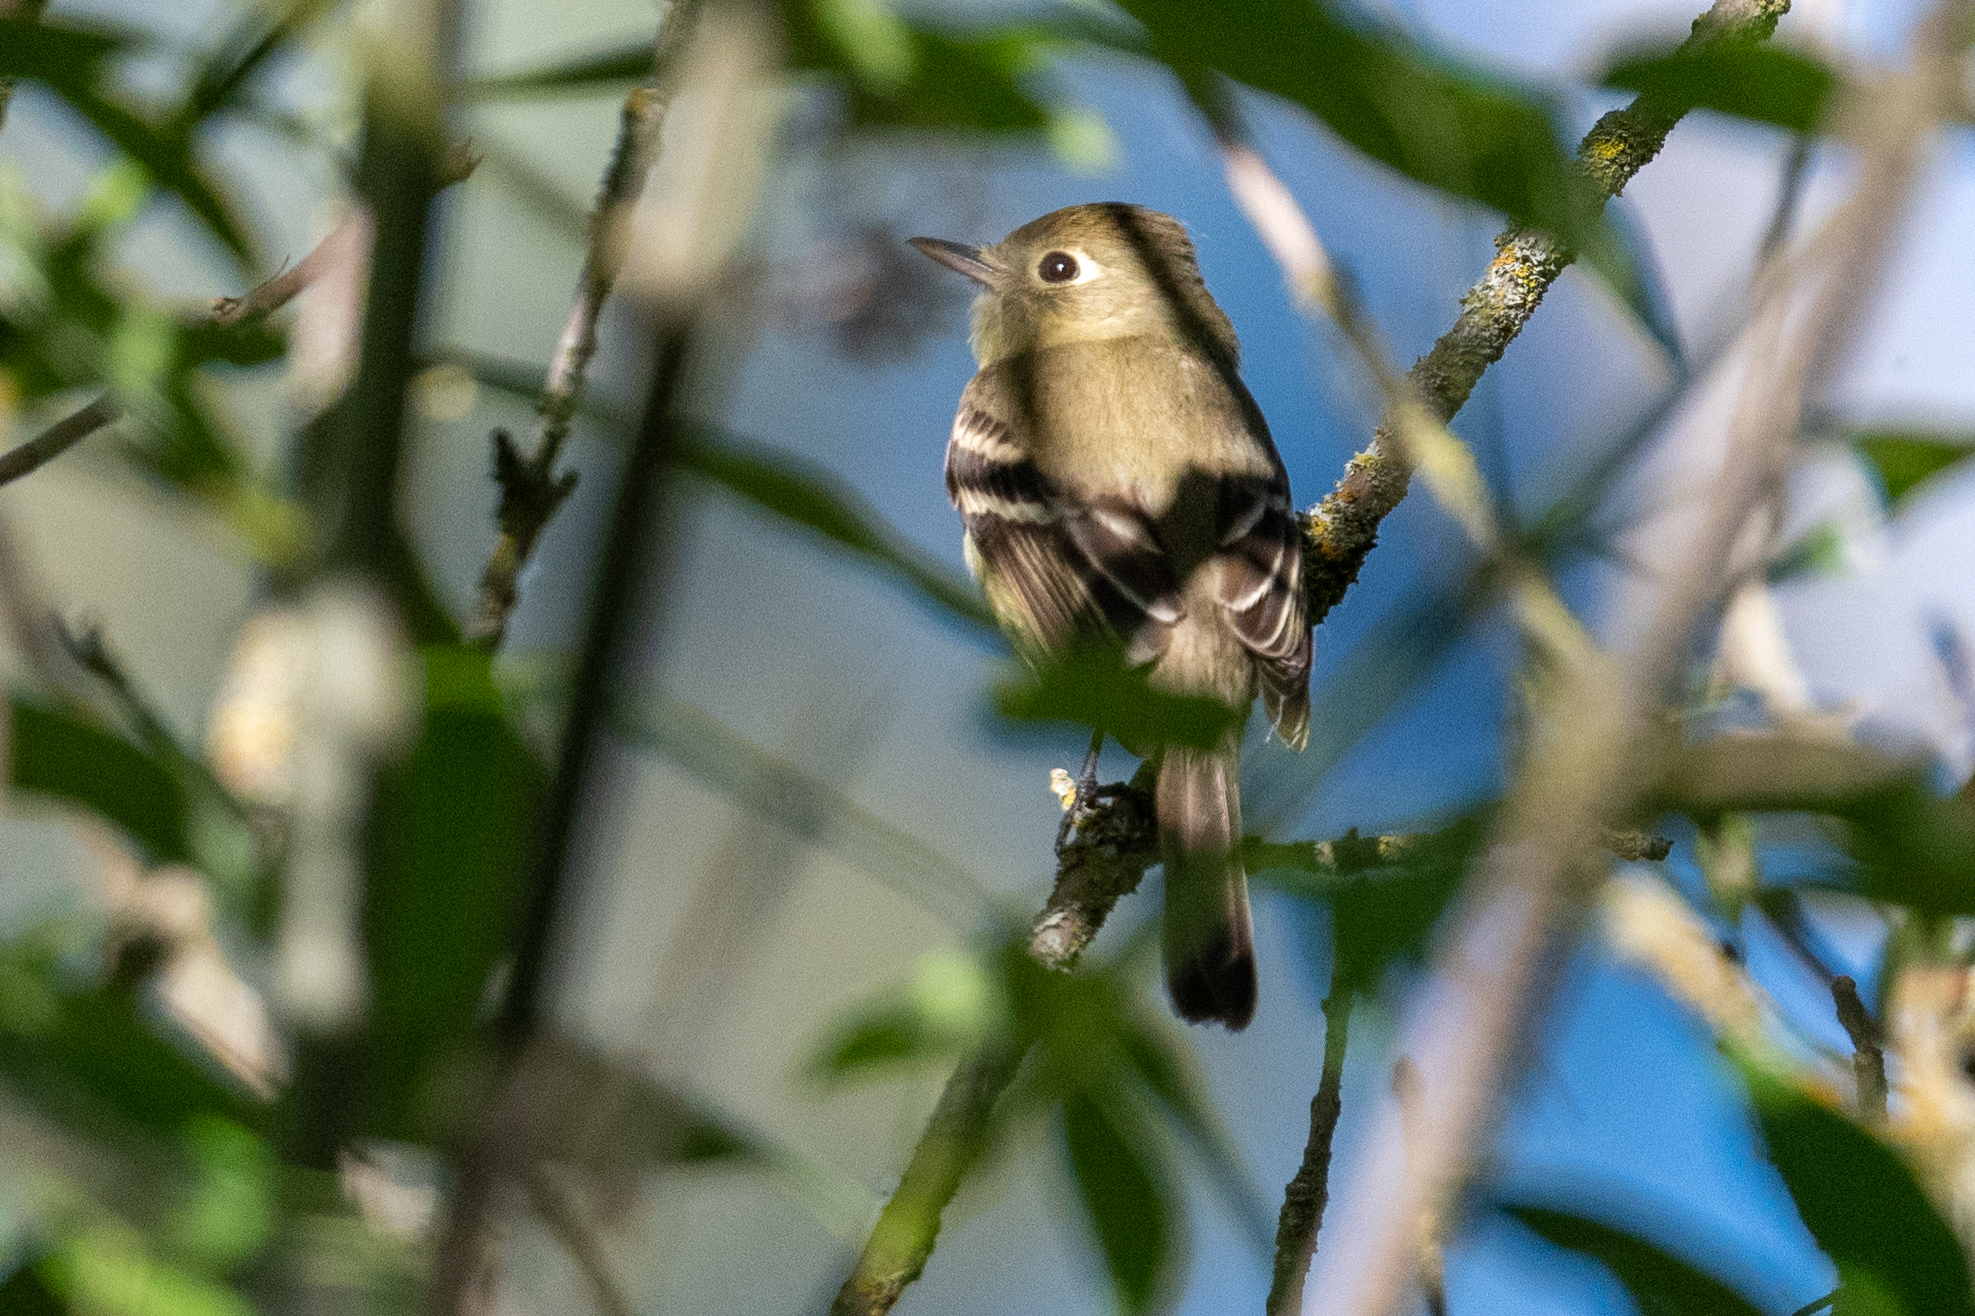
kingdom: Animalia
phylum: Chordata
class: Aves
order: Passeriformes
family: Tyrannidae
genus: Empidonax
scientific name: Empidonax difficilis
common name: Pacific-slope flycatcher
